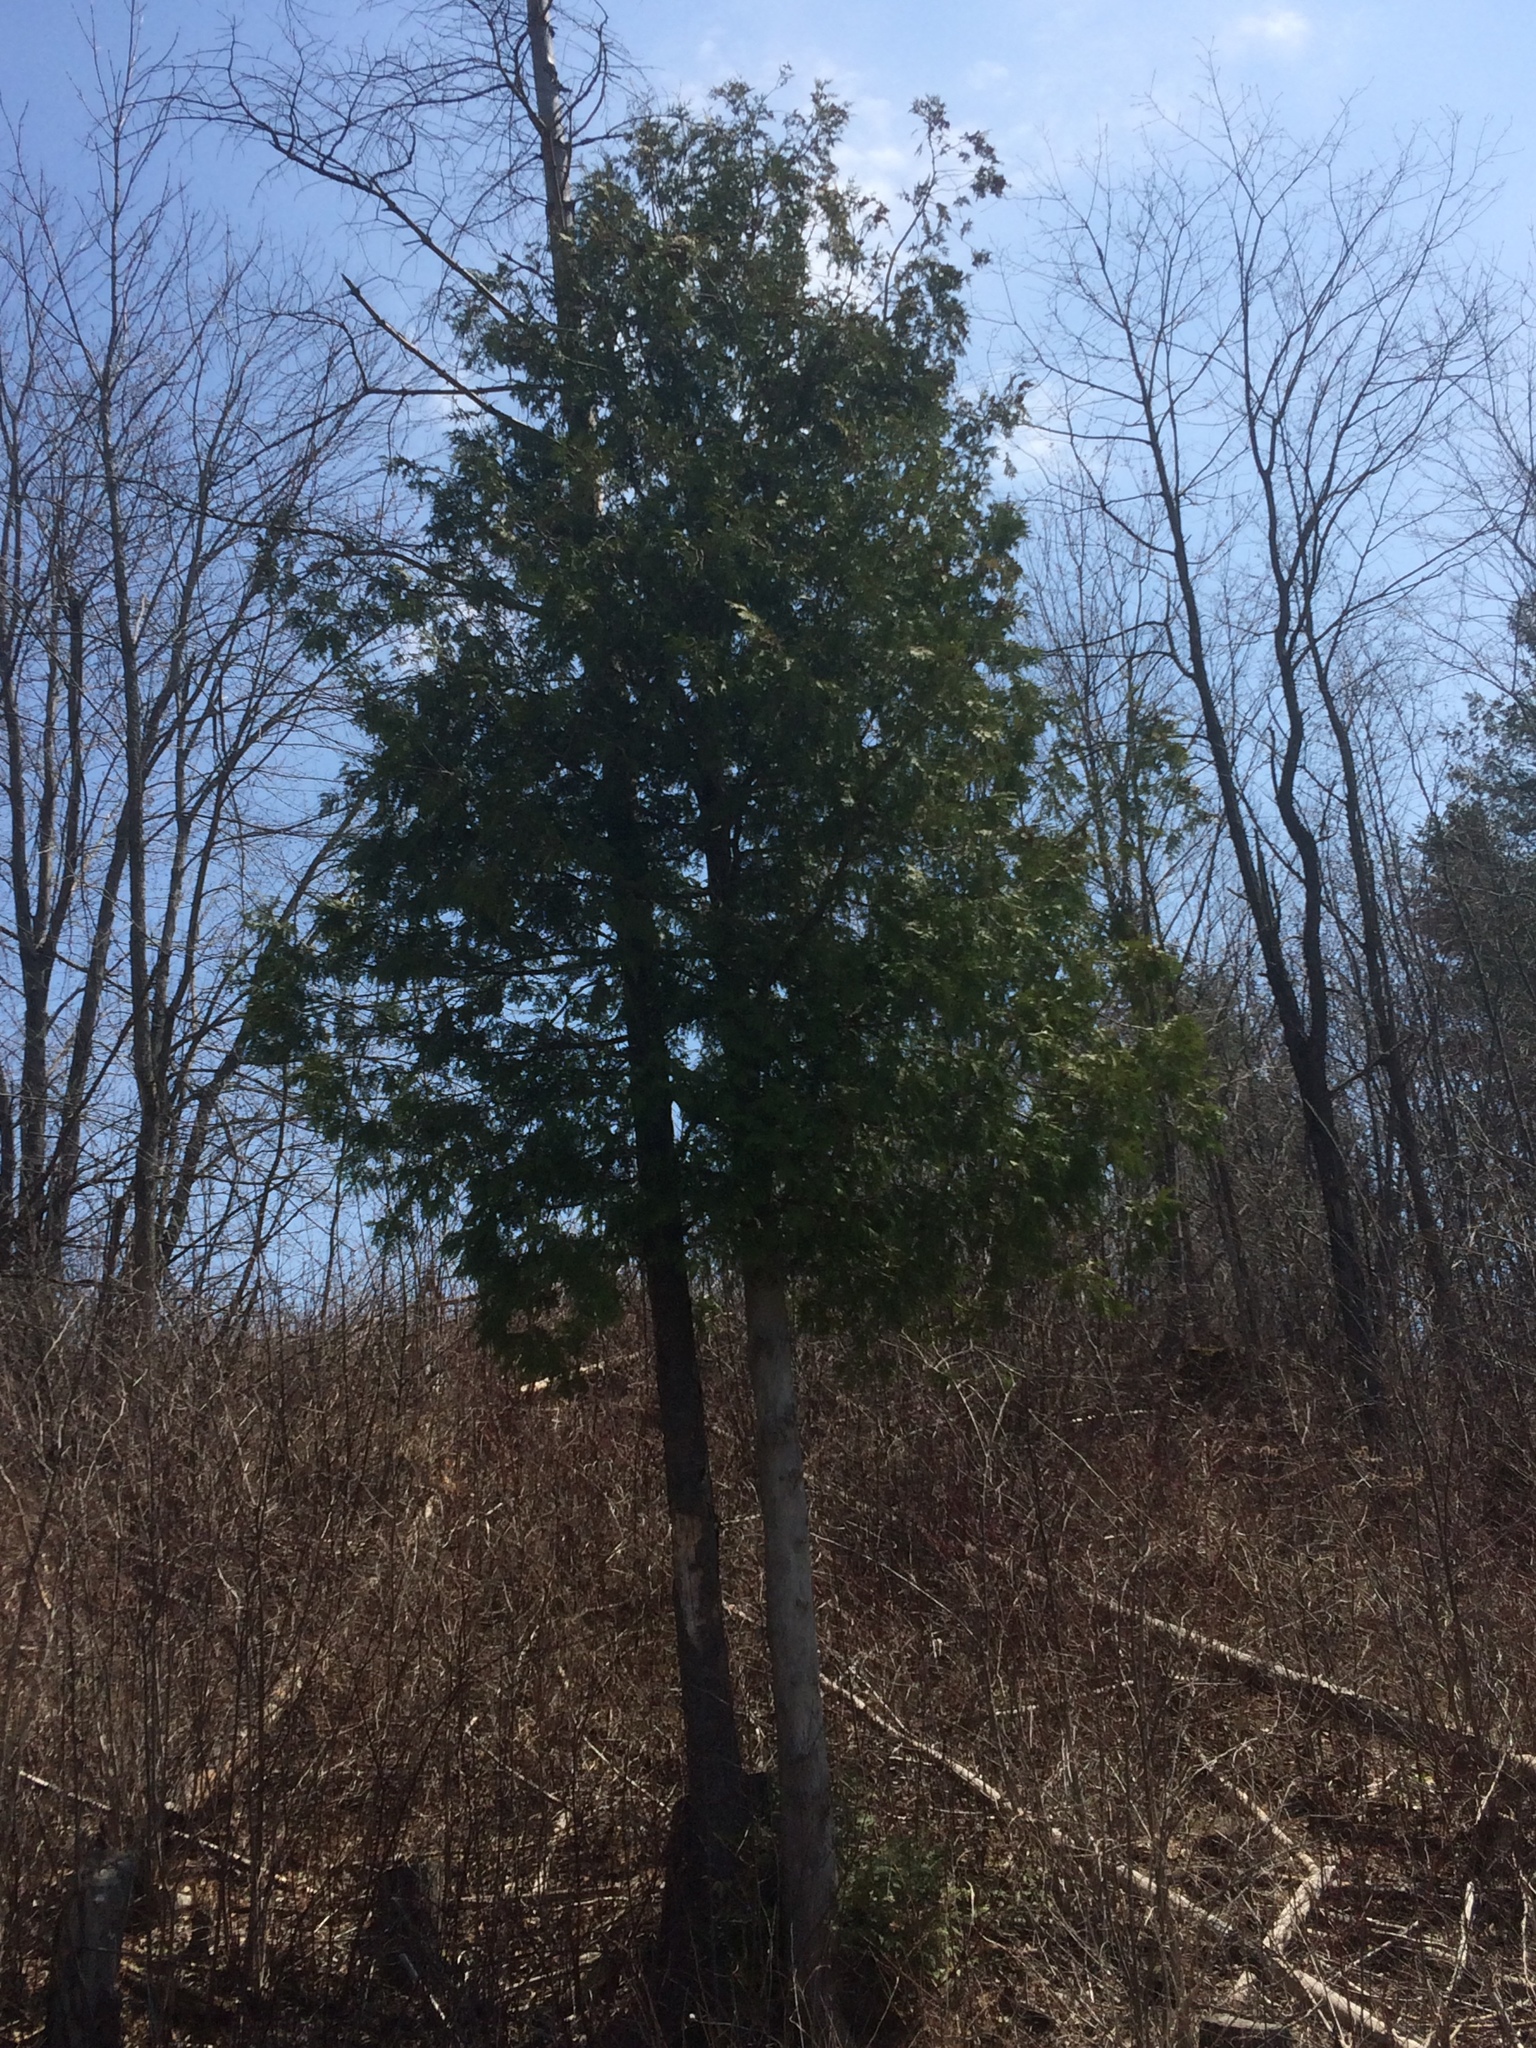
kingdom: Plantae
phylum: Tracheophyta
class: Pinopsida
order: Pinales
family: Cupressaceae
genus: Thuja
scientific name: Thuja occidentalis
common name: Northern white-cedar
